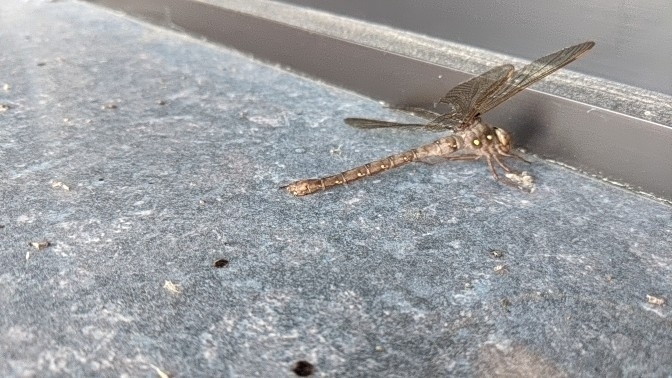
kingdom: Animalia
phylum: Arthropoda
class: Insecta
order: Odonata
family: Aeshnidae
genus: Boyeria
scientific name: Boyeria vinosa
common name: Fawn darner
